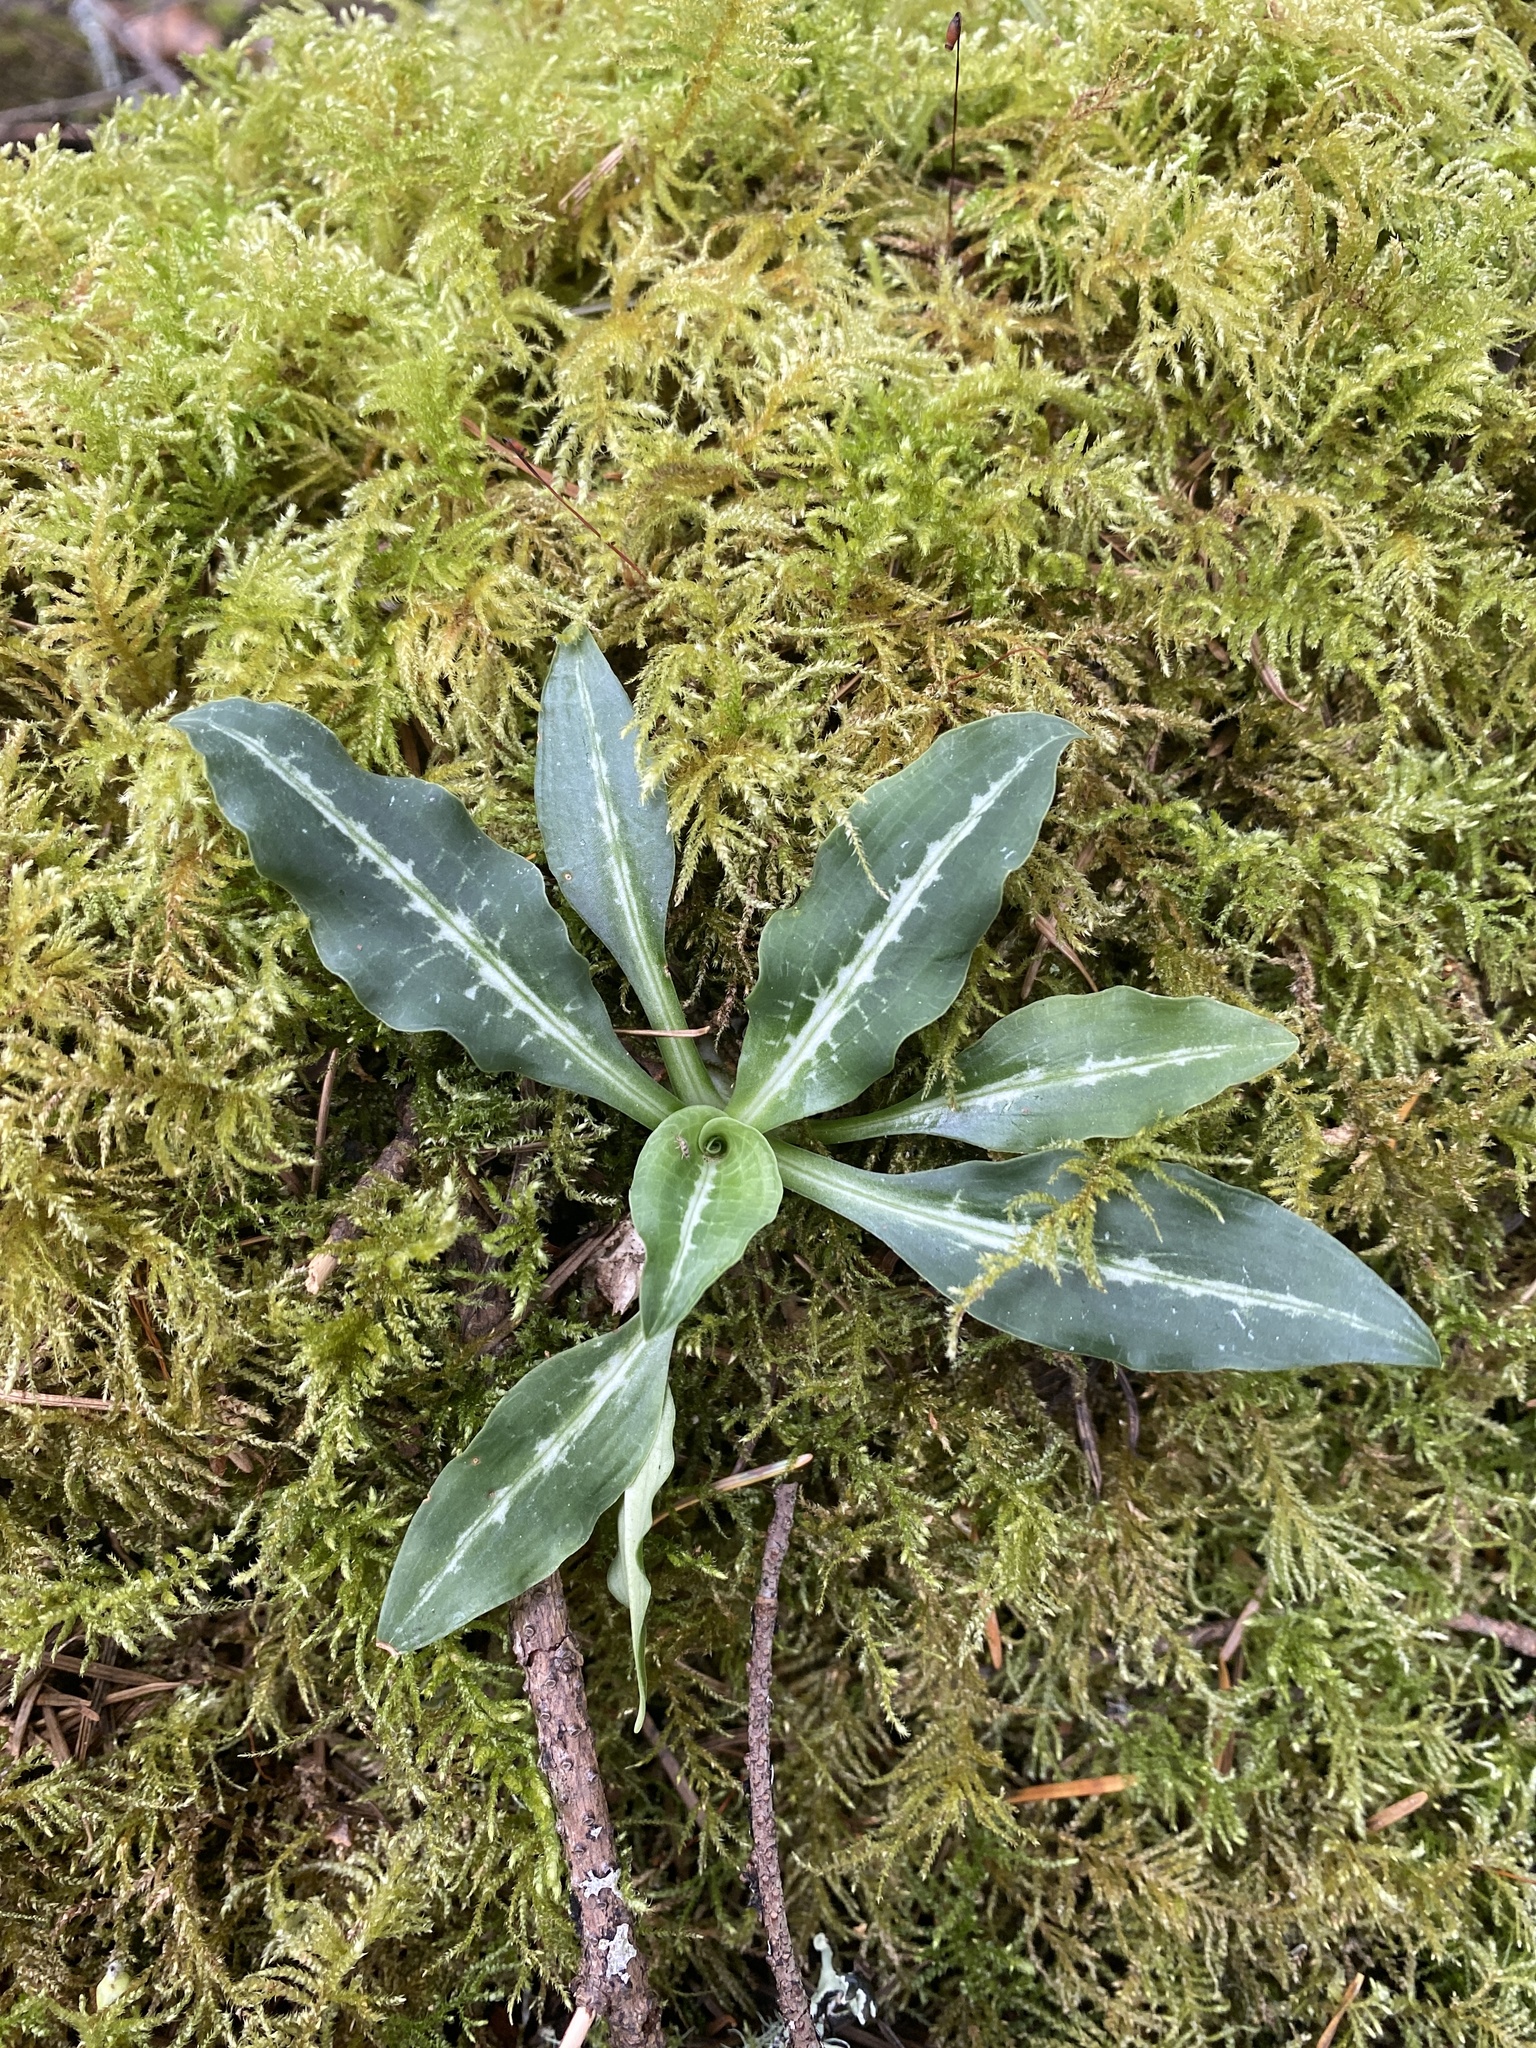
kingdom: Plantae
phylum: Tracheophyta
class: Liliopsida
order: Asparagales
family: Orchidaceae
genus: Goodyera
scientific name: Goodyera oblongifolia
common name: Giant rattlesnake-plantain
